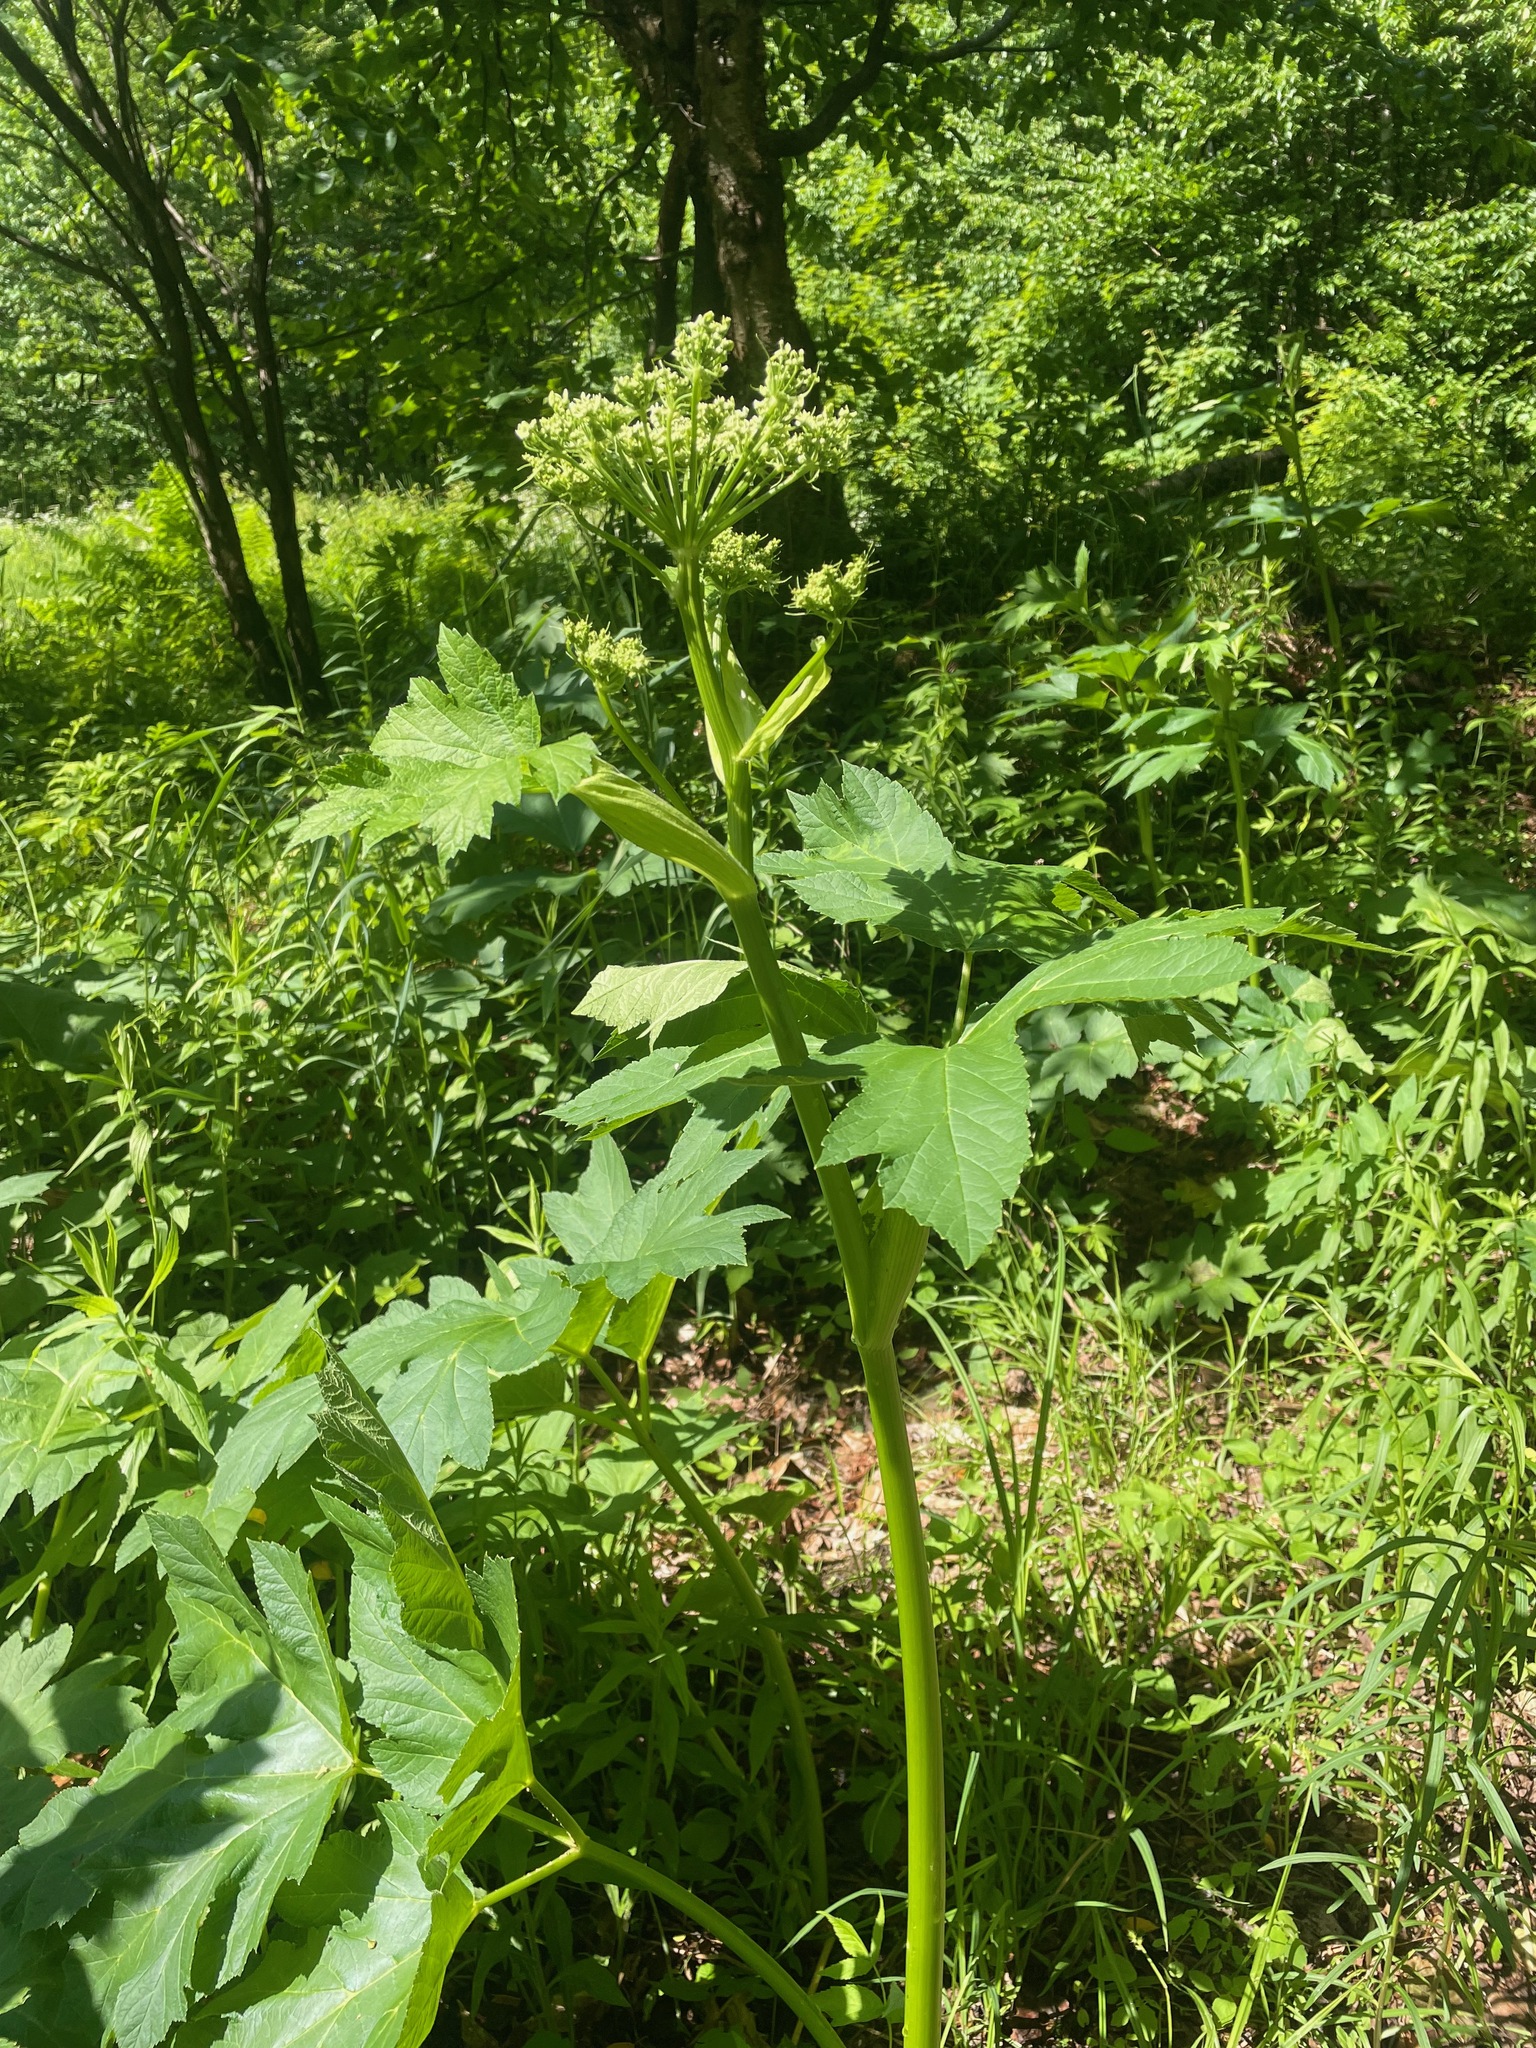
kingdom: Plantae
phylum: Tracheophyta
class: Magnoliopsida
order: Apiales
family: Apiaceae
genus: Heracleum
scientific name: Heracleum maximum
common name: American cow parsnip
